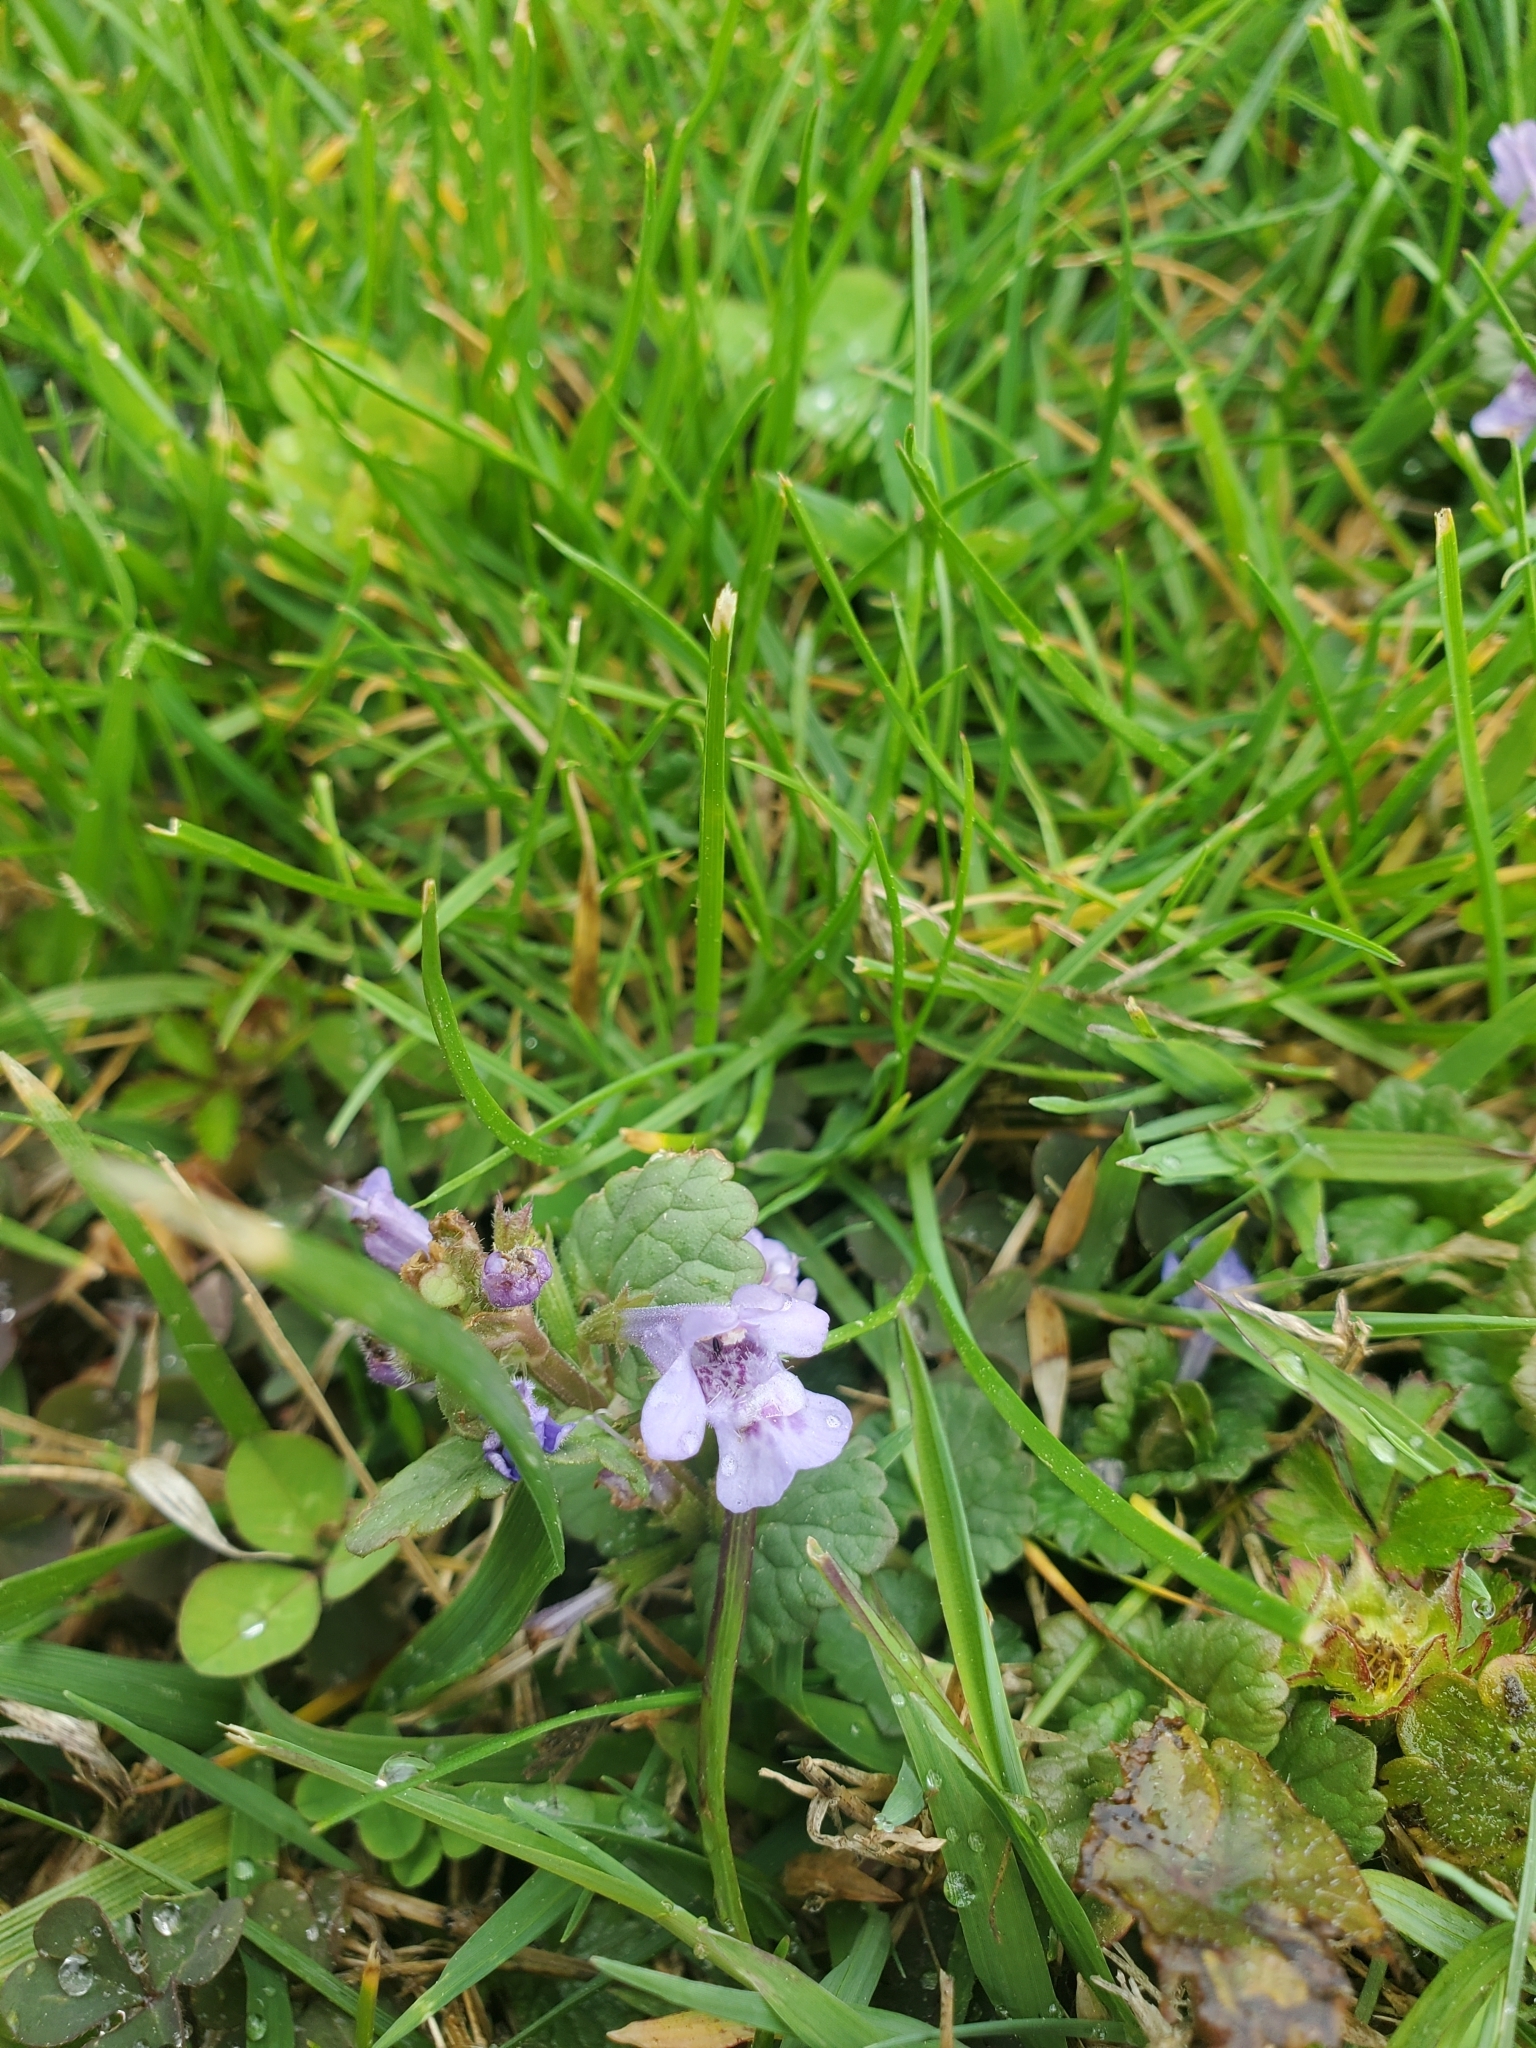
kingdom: Plantae
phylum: Tracheophyta
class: Magnoliopsida
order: Lamiales
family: Lamiaceae
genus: Glechoma
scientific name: Glechoma hederacea
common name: Ground ivy
